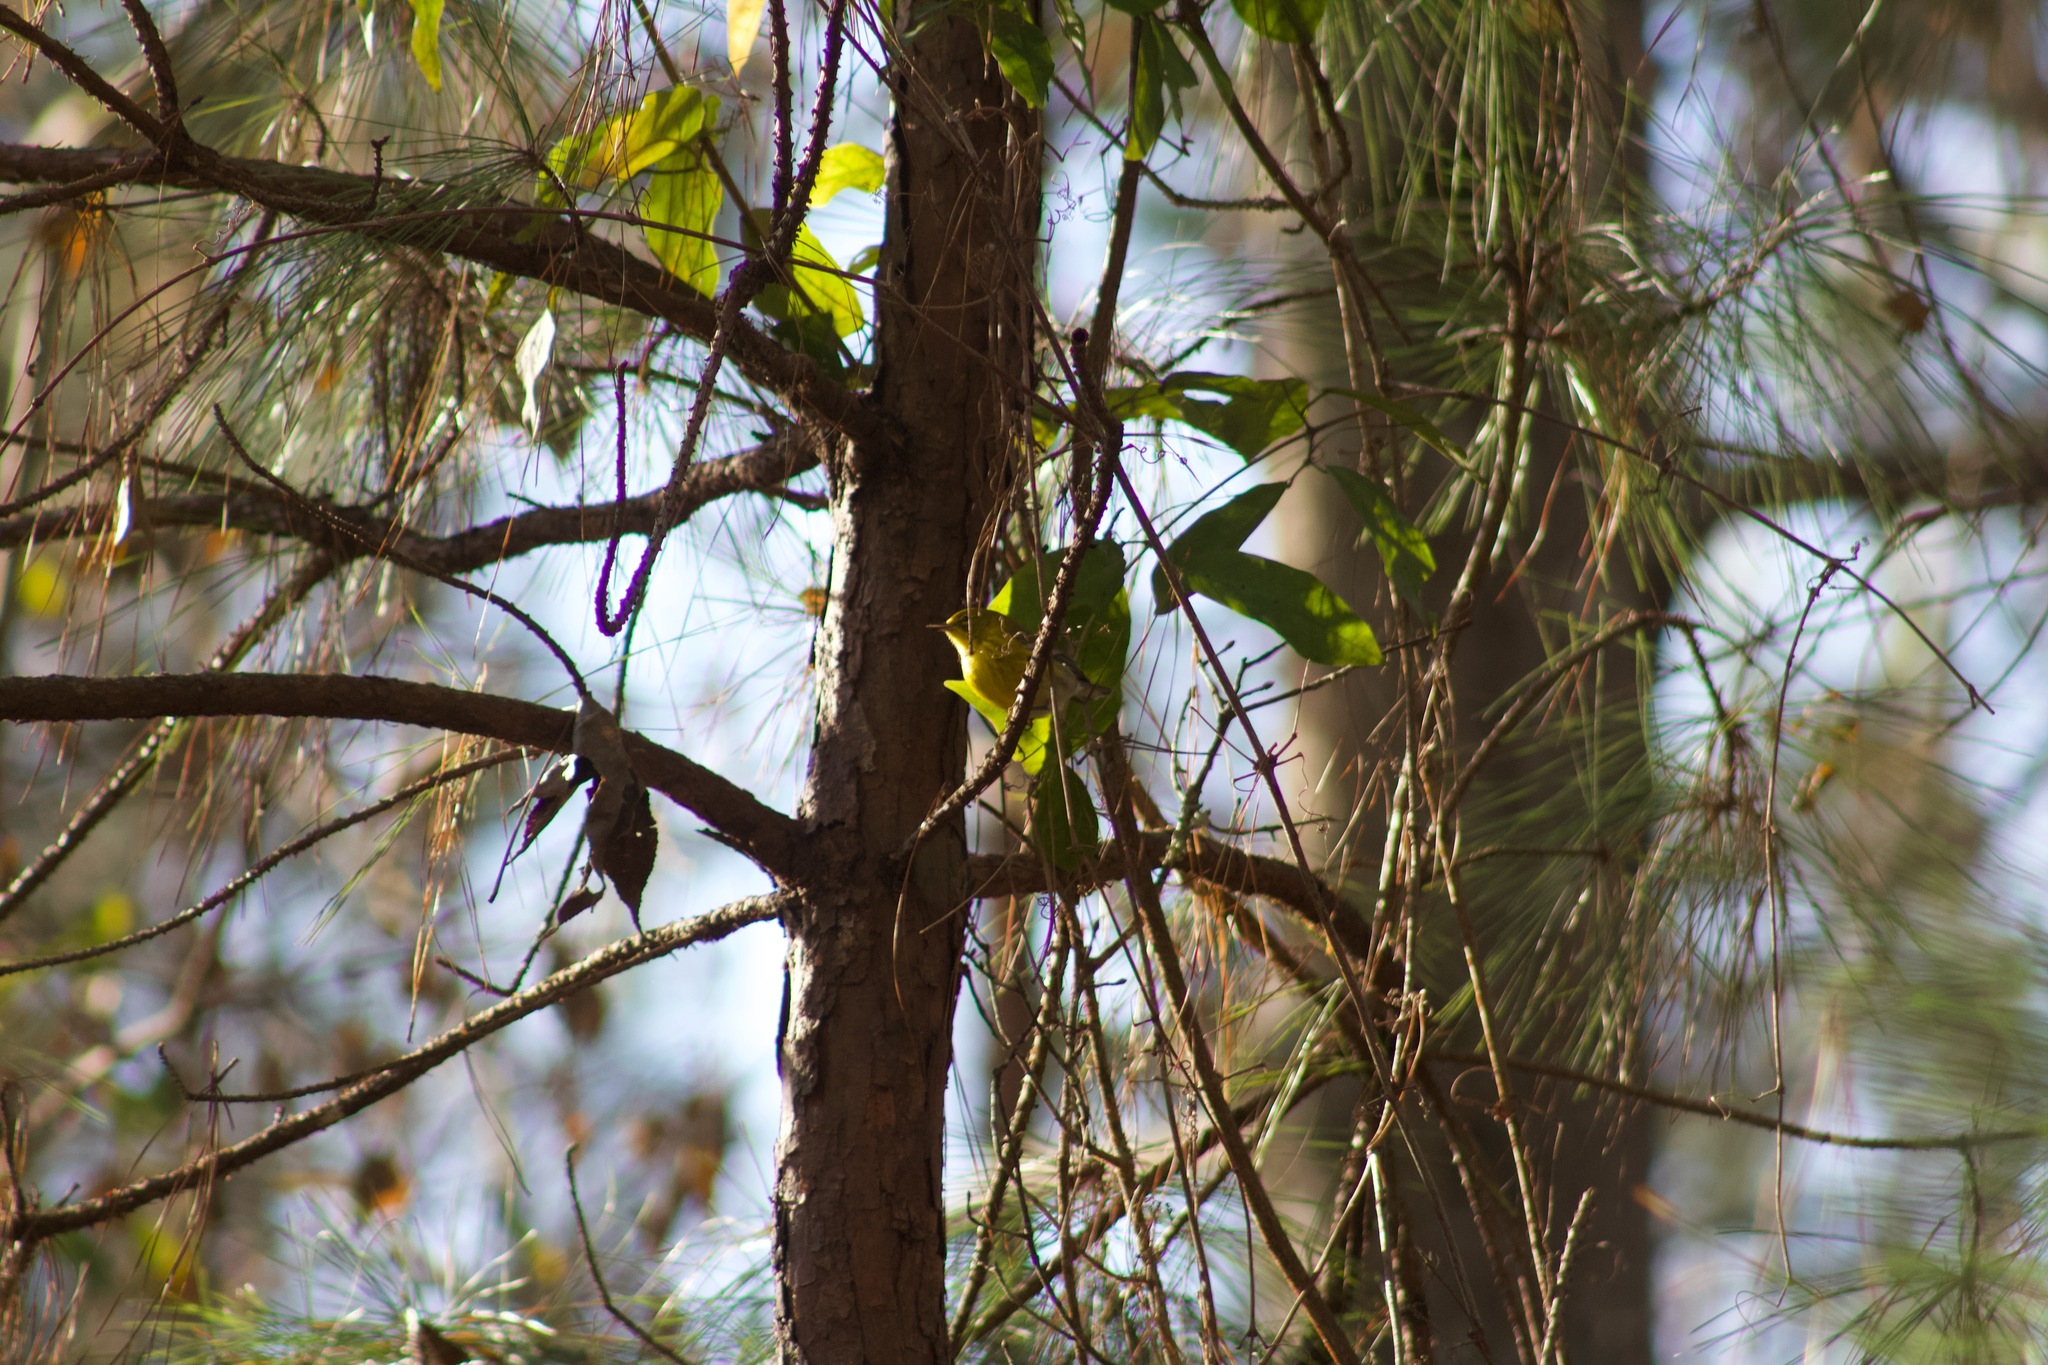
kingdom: Animalia
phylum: Chordata
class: Aves
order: Passeriformes
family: Parulidae
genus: Setophaga
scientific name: Setophaga pinus
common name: Pine warbler
